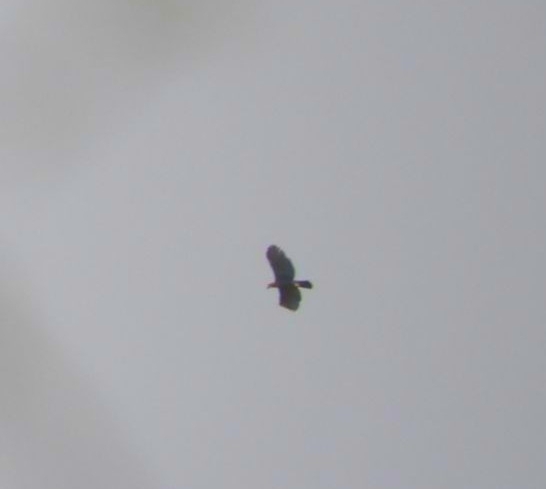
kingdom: Animalia
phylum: Chordata
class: Aves
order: Accipitriformes
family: Accipitridae
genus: Spizaetus
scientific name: Spizaetus ornatus
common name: Ornate hawk-eagle
